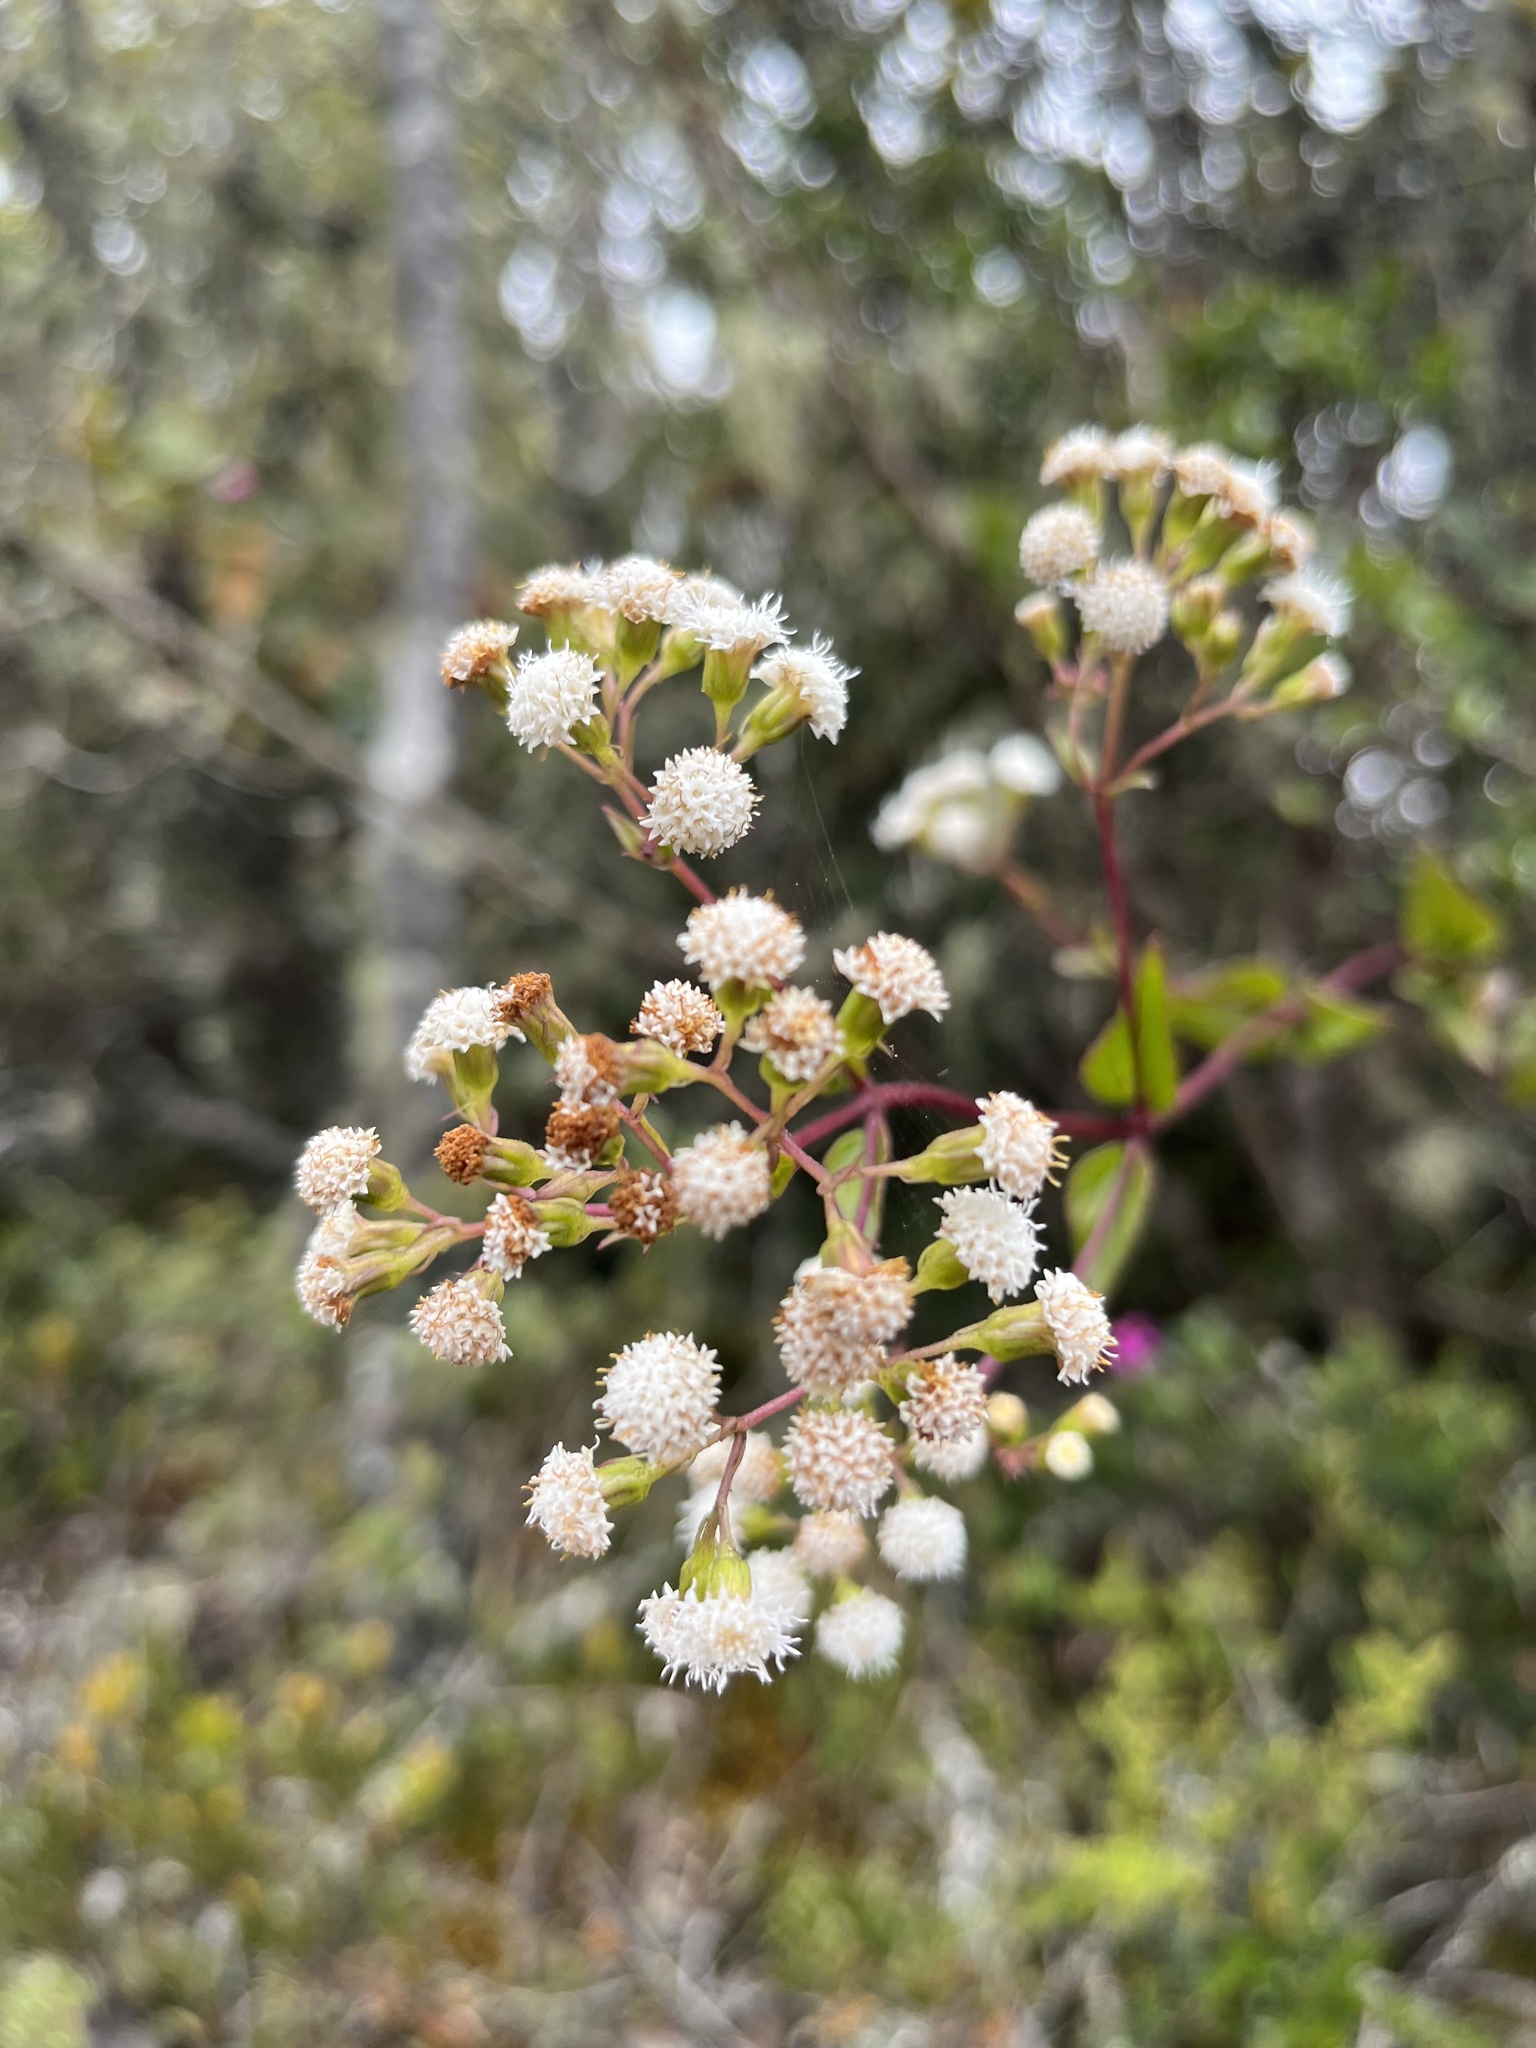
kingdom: Plantae
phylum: Tracheophyta
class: Magnoliopsida
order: Asterales
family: Asteraceae
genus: Ageratina
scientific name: Ageratina gracilis
